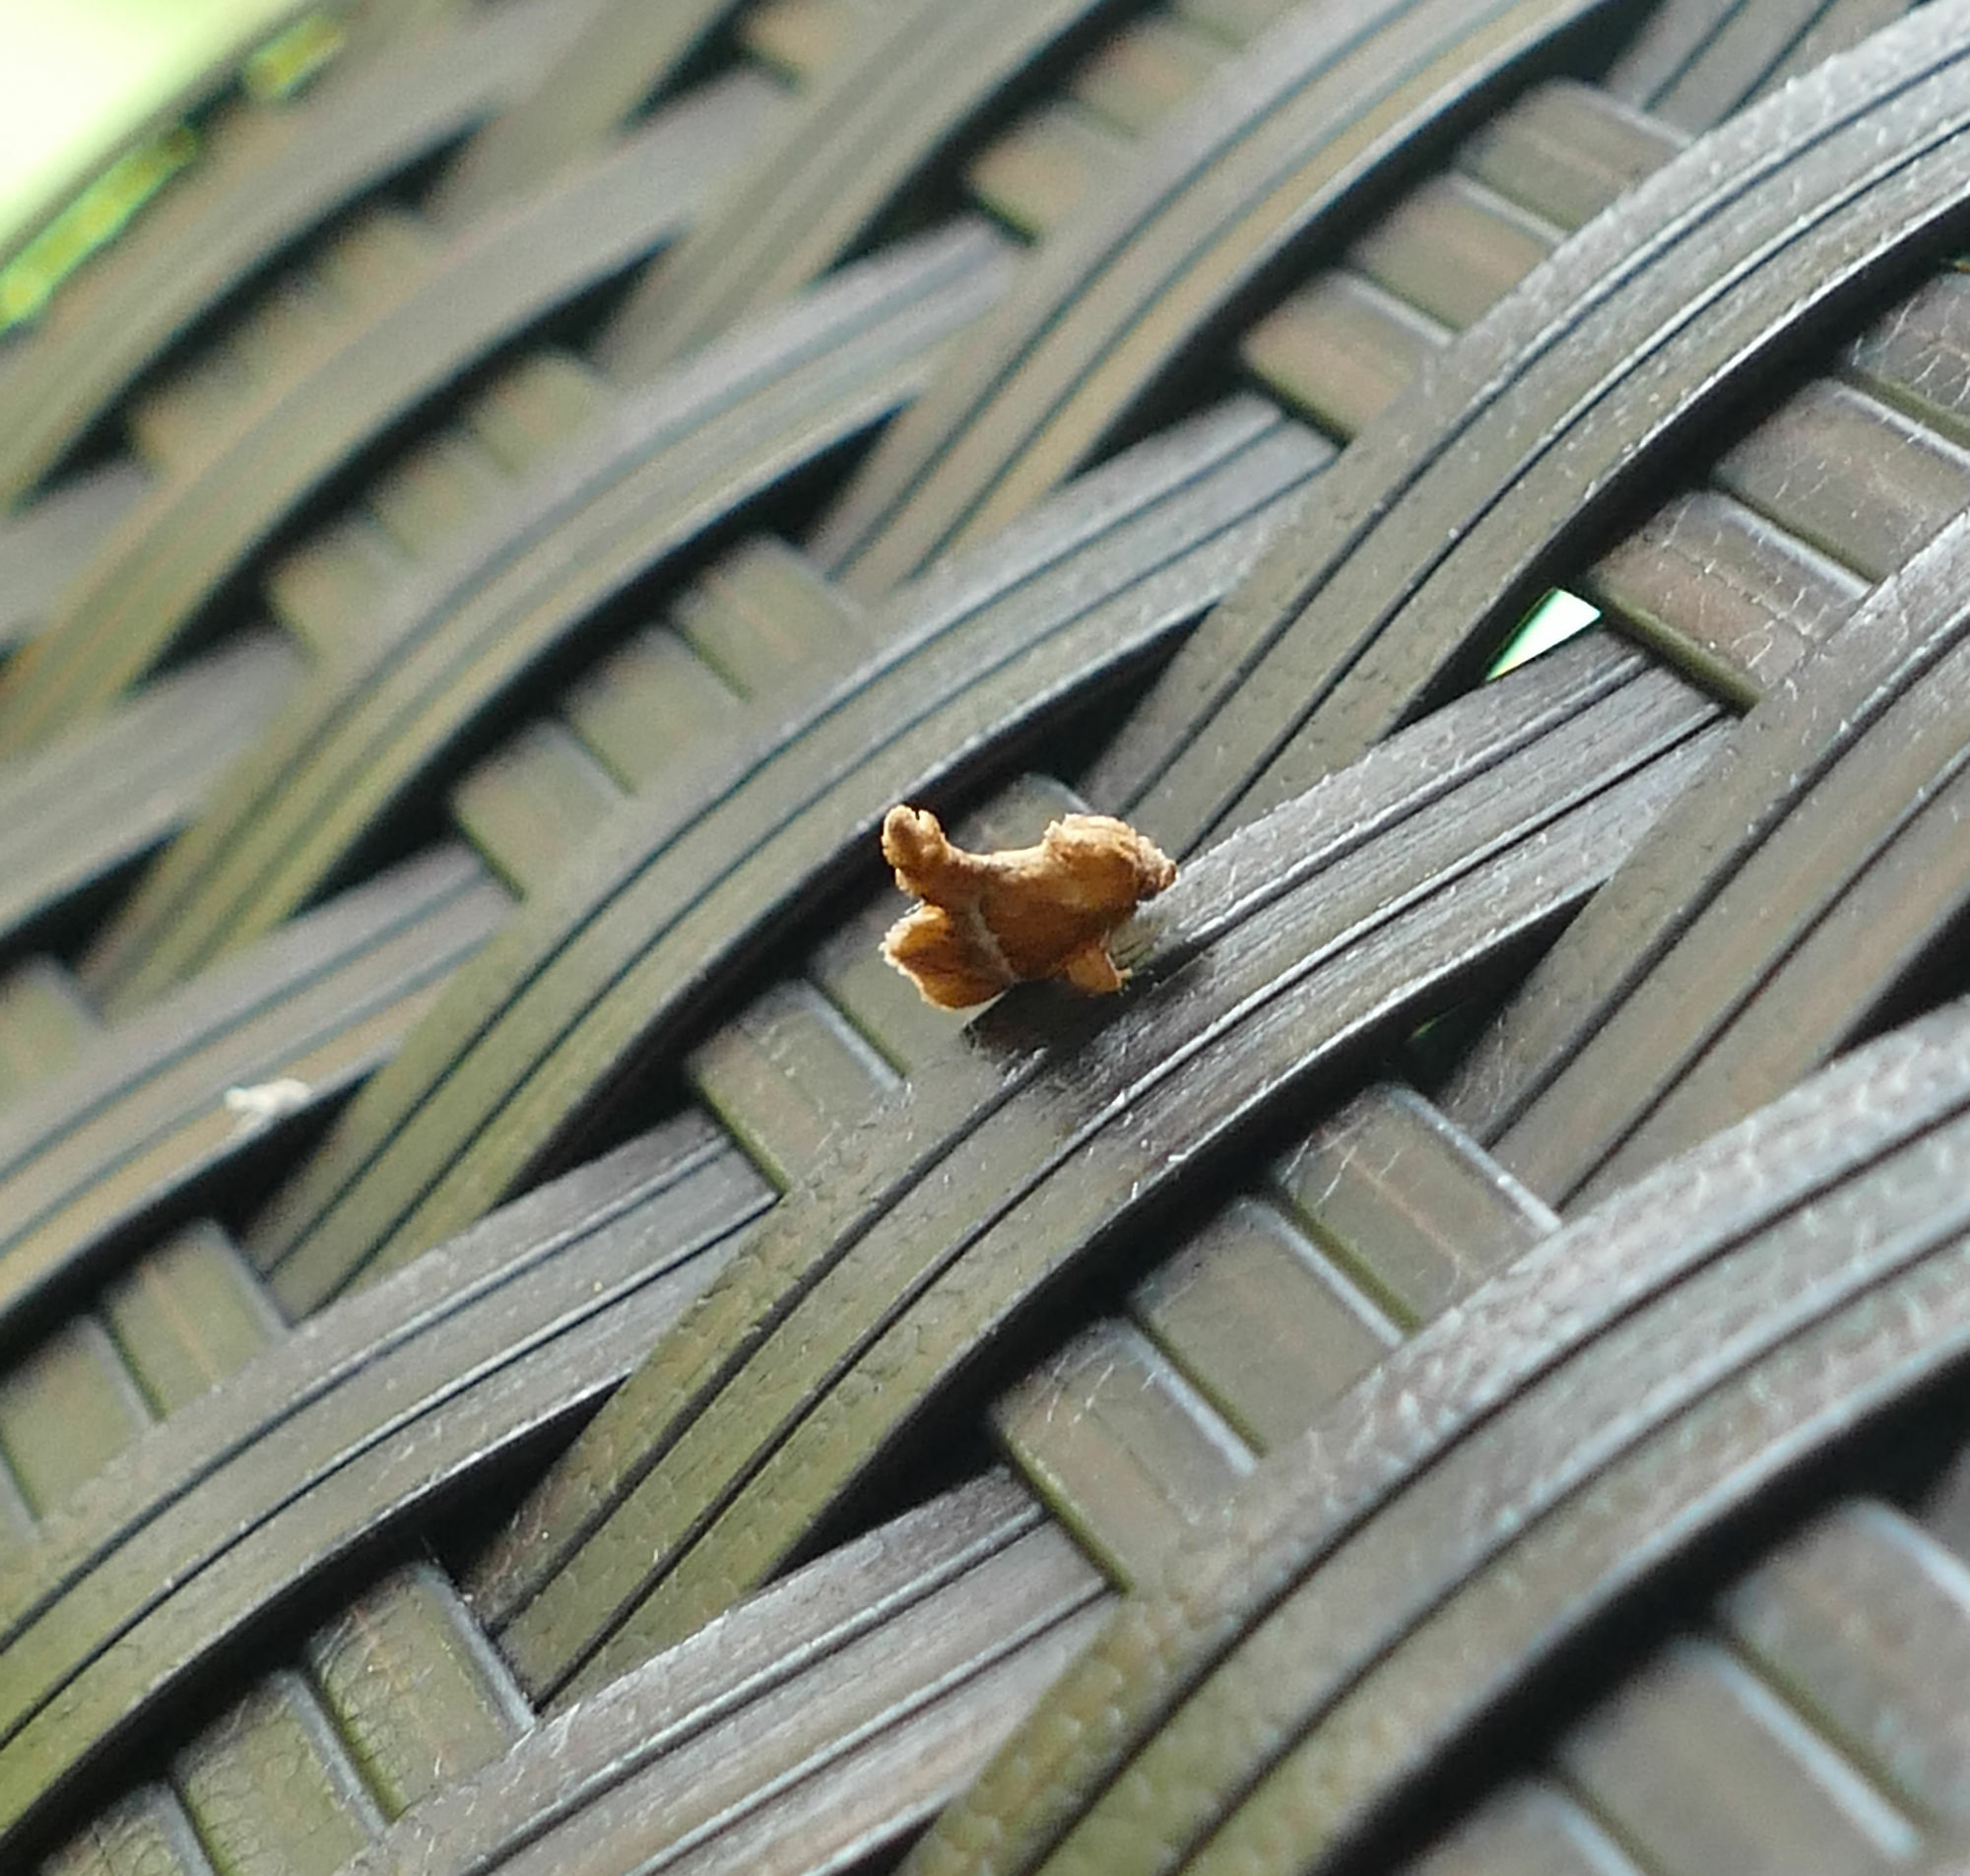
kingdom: Animalia
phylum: Arthropoda
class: Insecta
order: Lepidoptera
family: Limacodidae
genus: Lithacodes
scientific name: Lithacodes gracea
